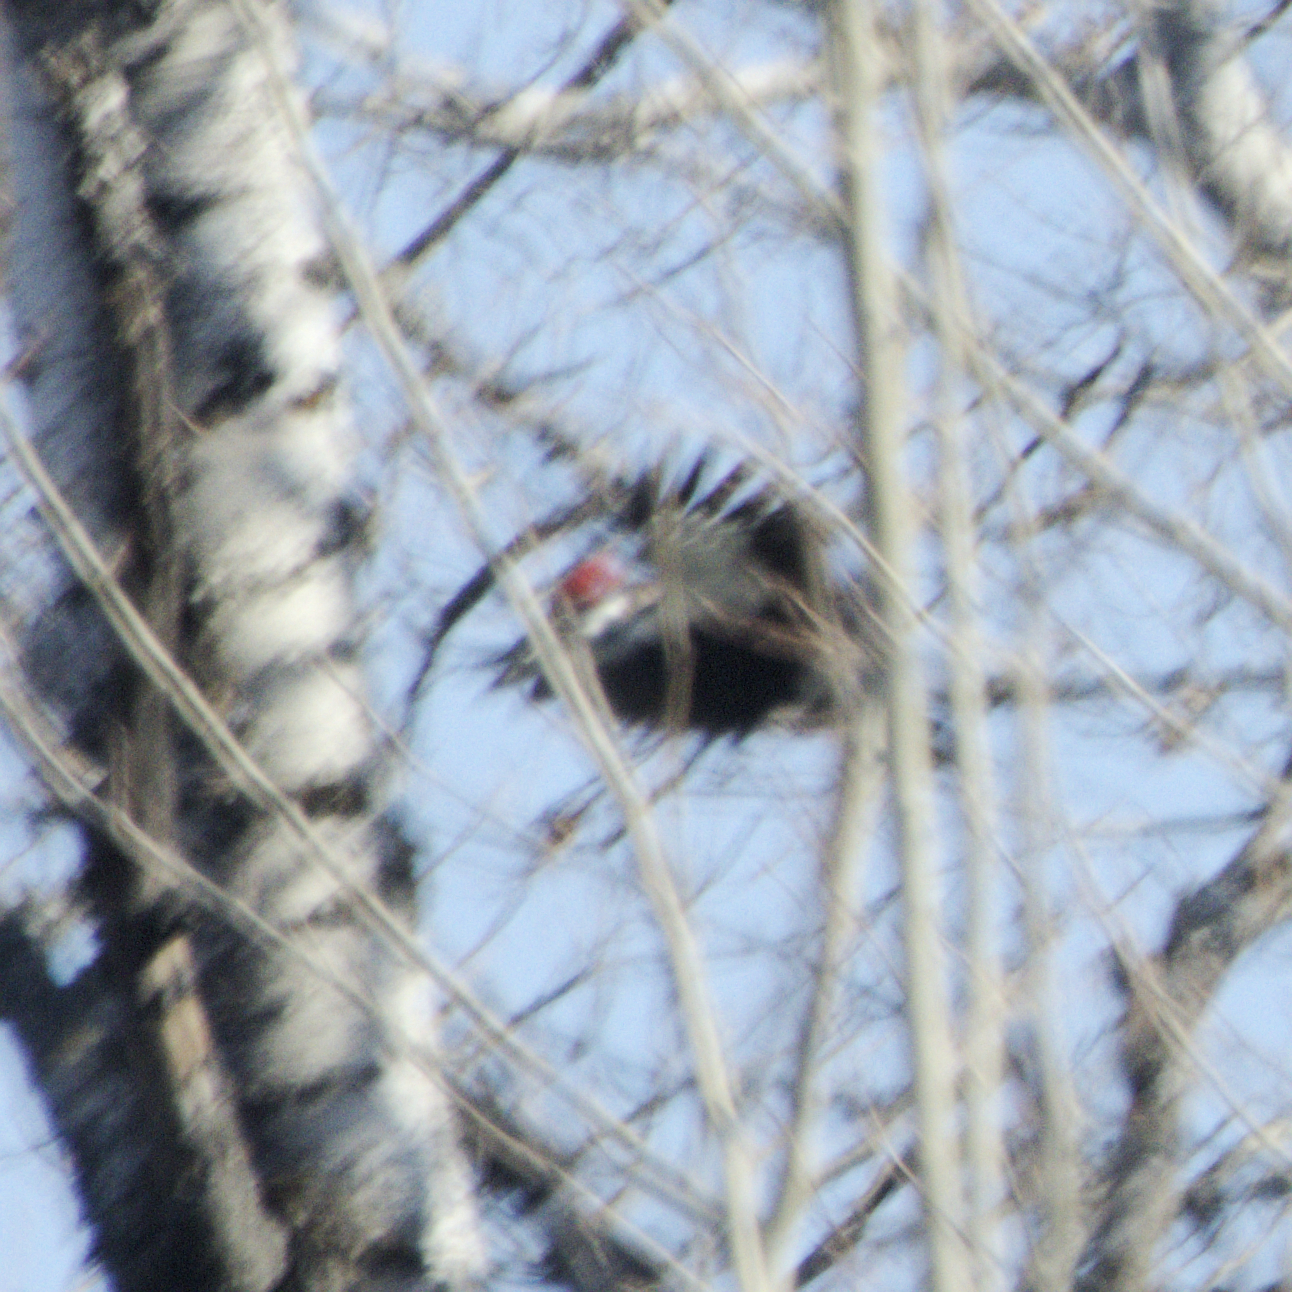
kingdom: Animalia
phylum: Chordata
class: Aves
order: Piciformes
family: Picidae
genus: Dryocopus
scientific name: Dryocopus pileatus
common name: Pileated woodpecker
